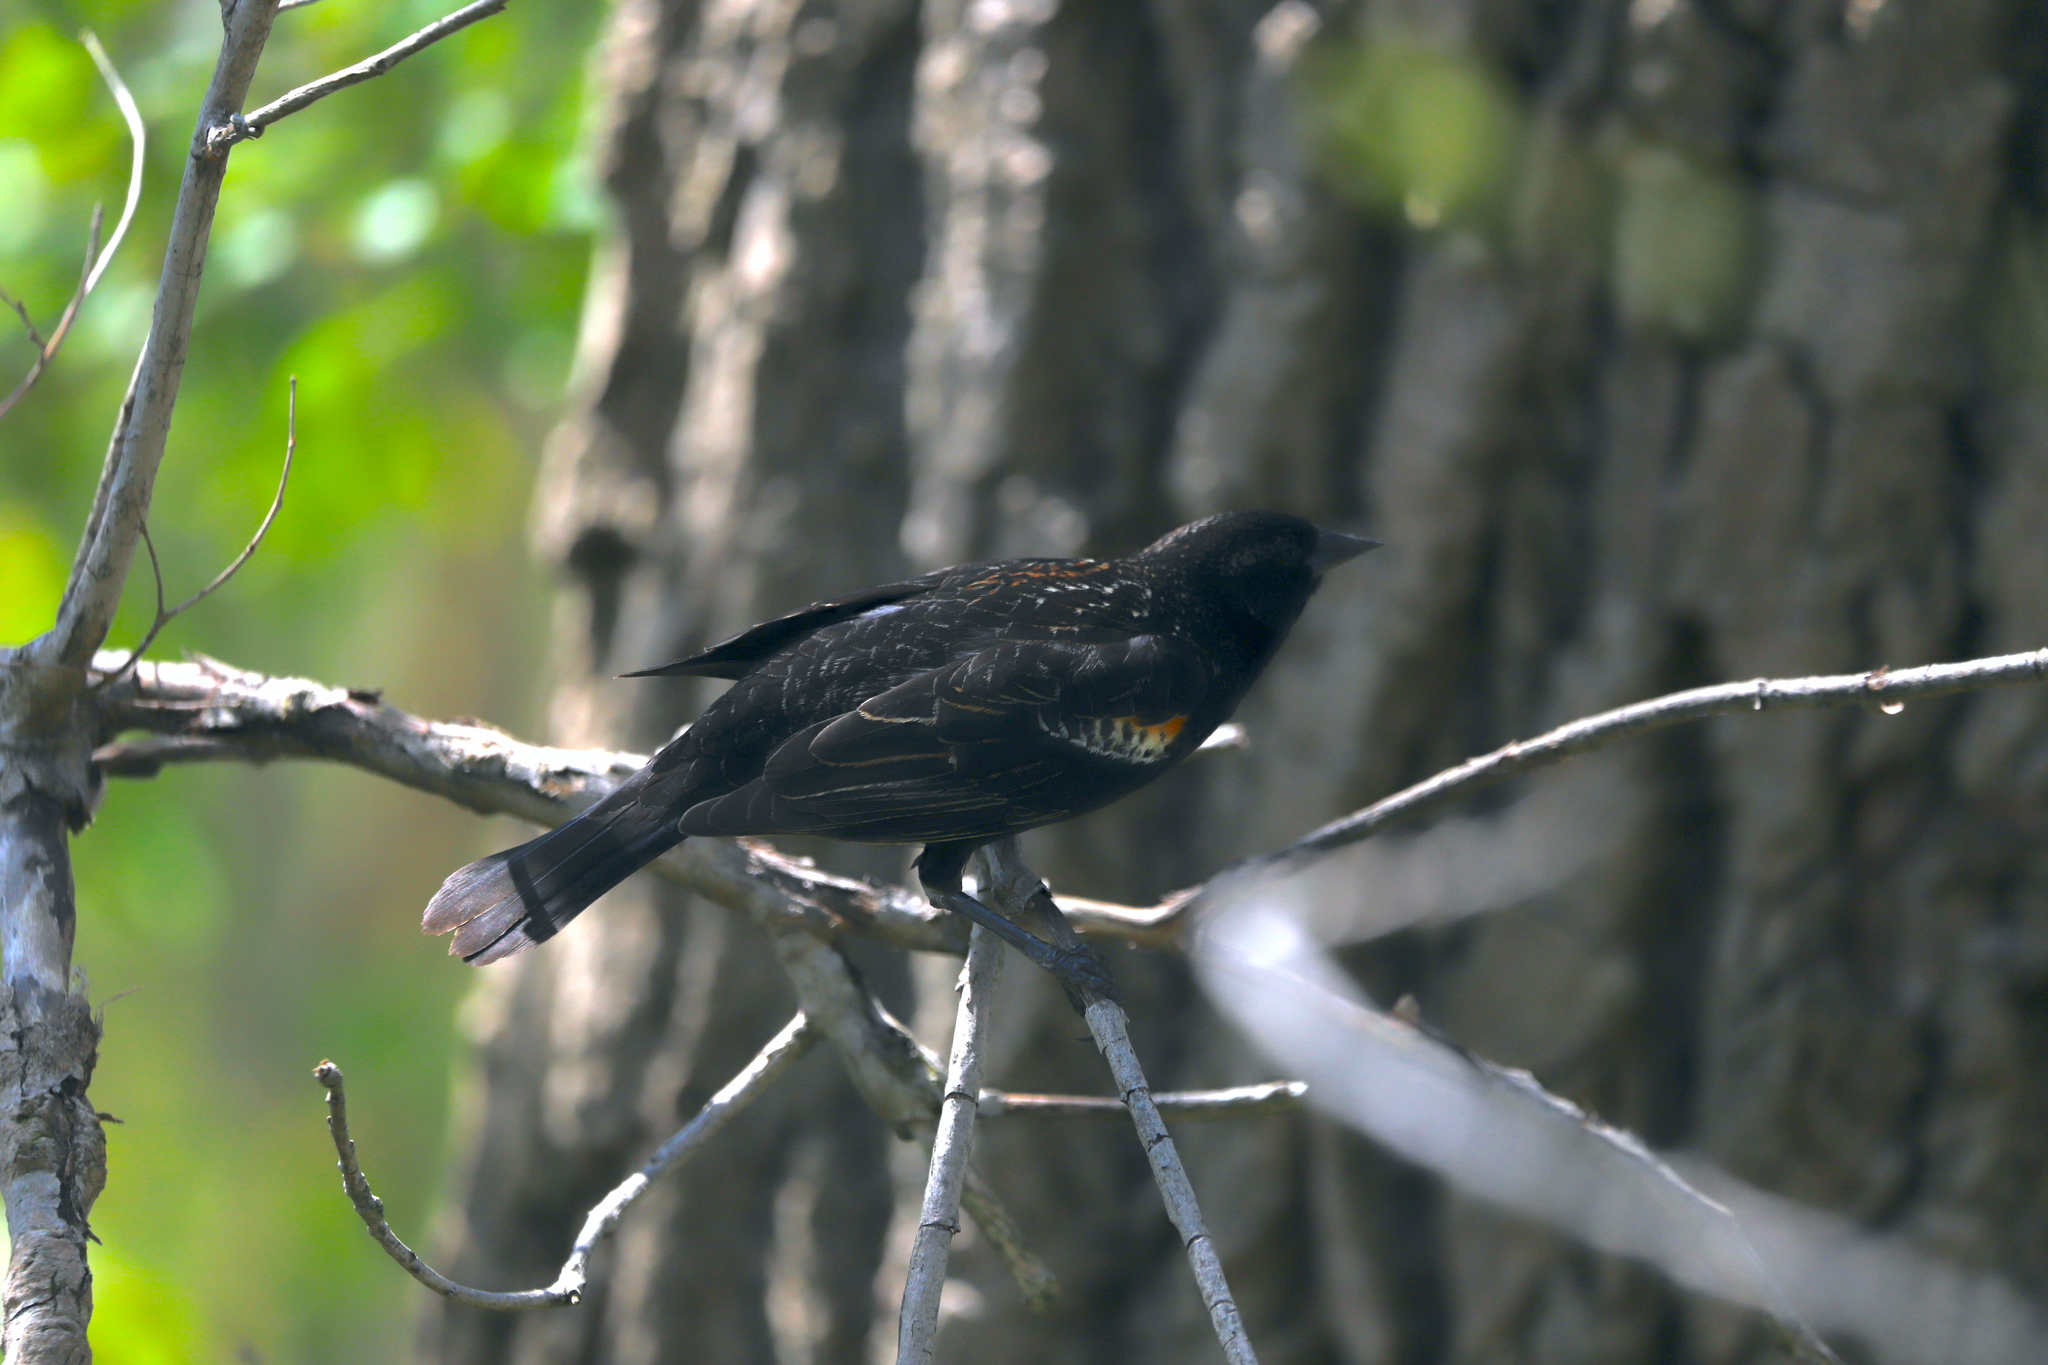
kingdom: Animalia
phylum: Chordata
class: Aves
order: Passeriformes
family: Icteridae
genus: Agelaius
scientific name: Agelaius phoeniceus
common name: Red-winged blackbird
